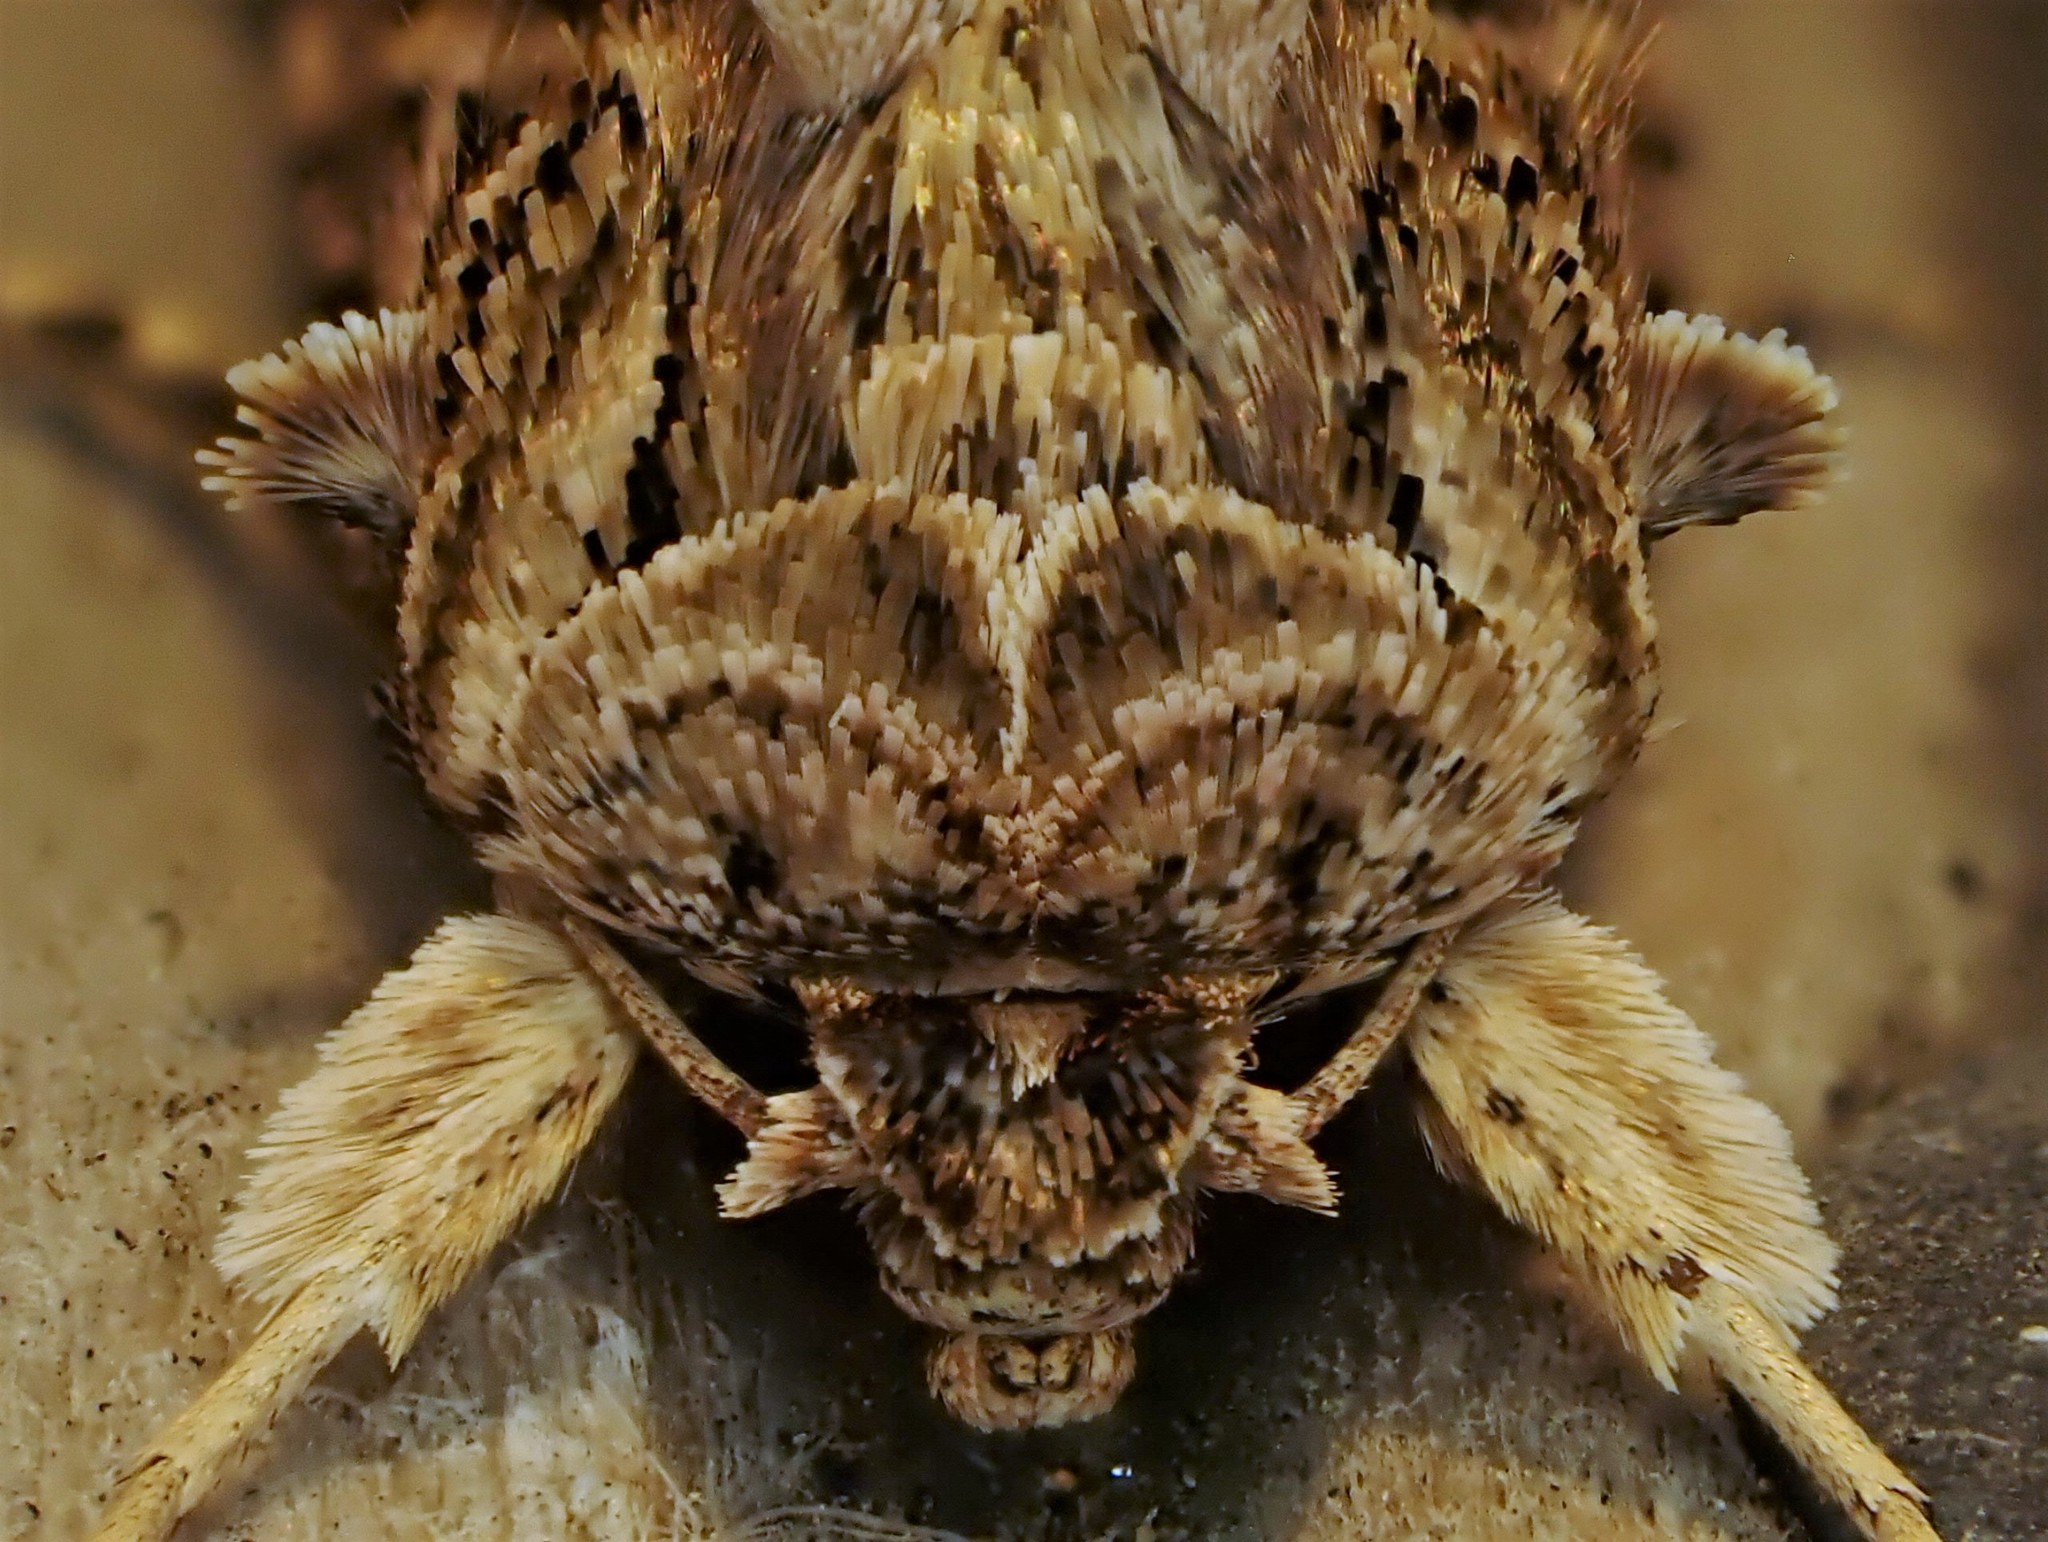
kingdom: Animalia
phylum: Arthropoda
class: Insecta
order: Lepidoptera
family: Noctuidae
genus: Spodoptera
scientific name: Spodoptera litura
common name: Asian cotton leafworm
